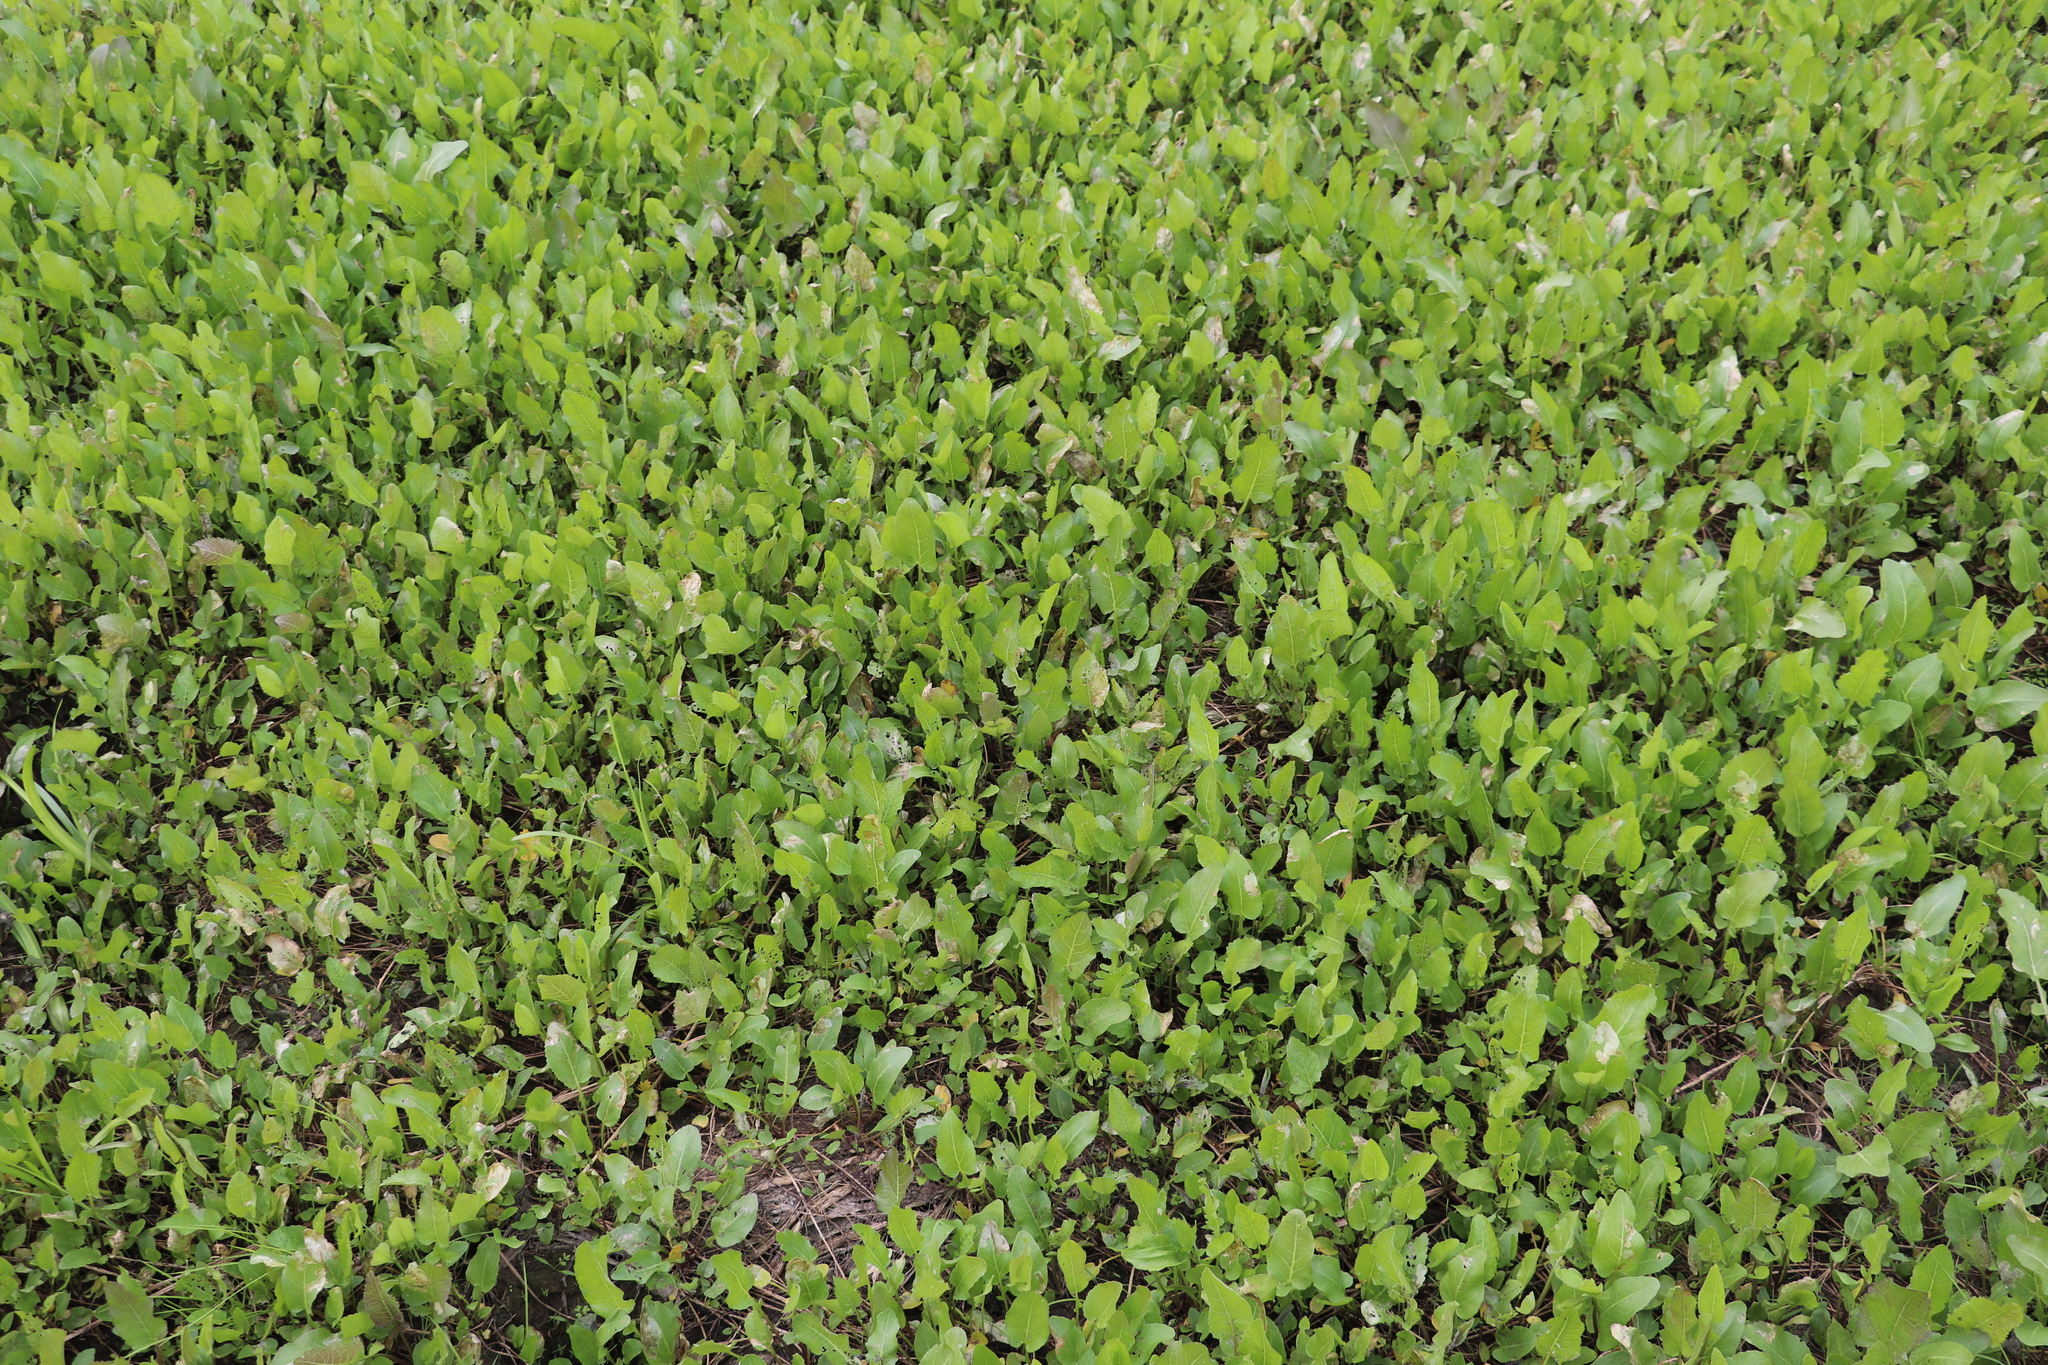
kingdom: Plantae
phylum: Tracheophyta
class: Magnoliopsida
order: Brassicales
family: Brassicaceae
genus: Rorippa
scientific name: Rorippa amphibia
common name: Great yellow-cress
